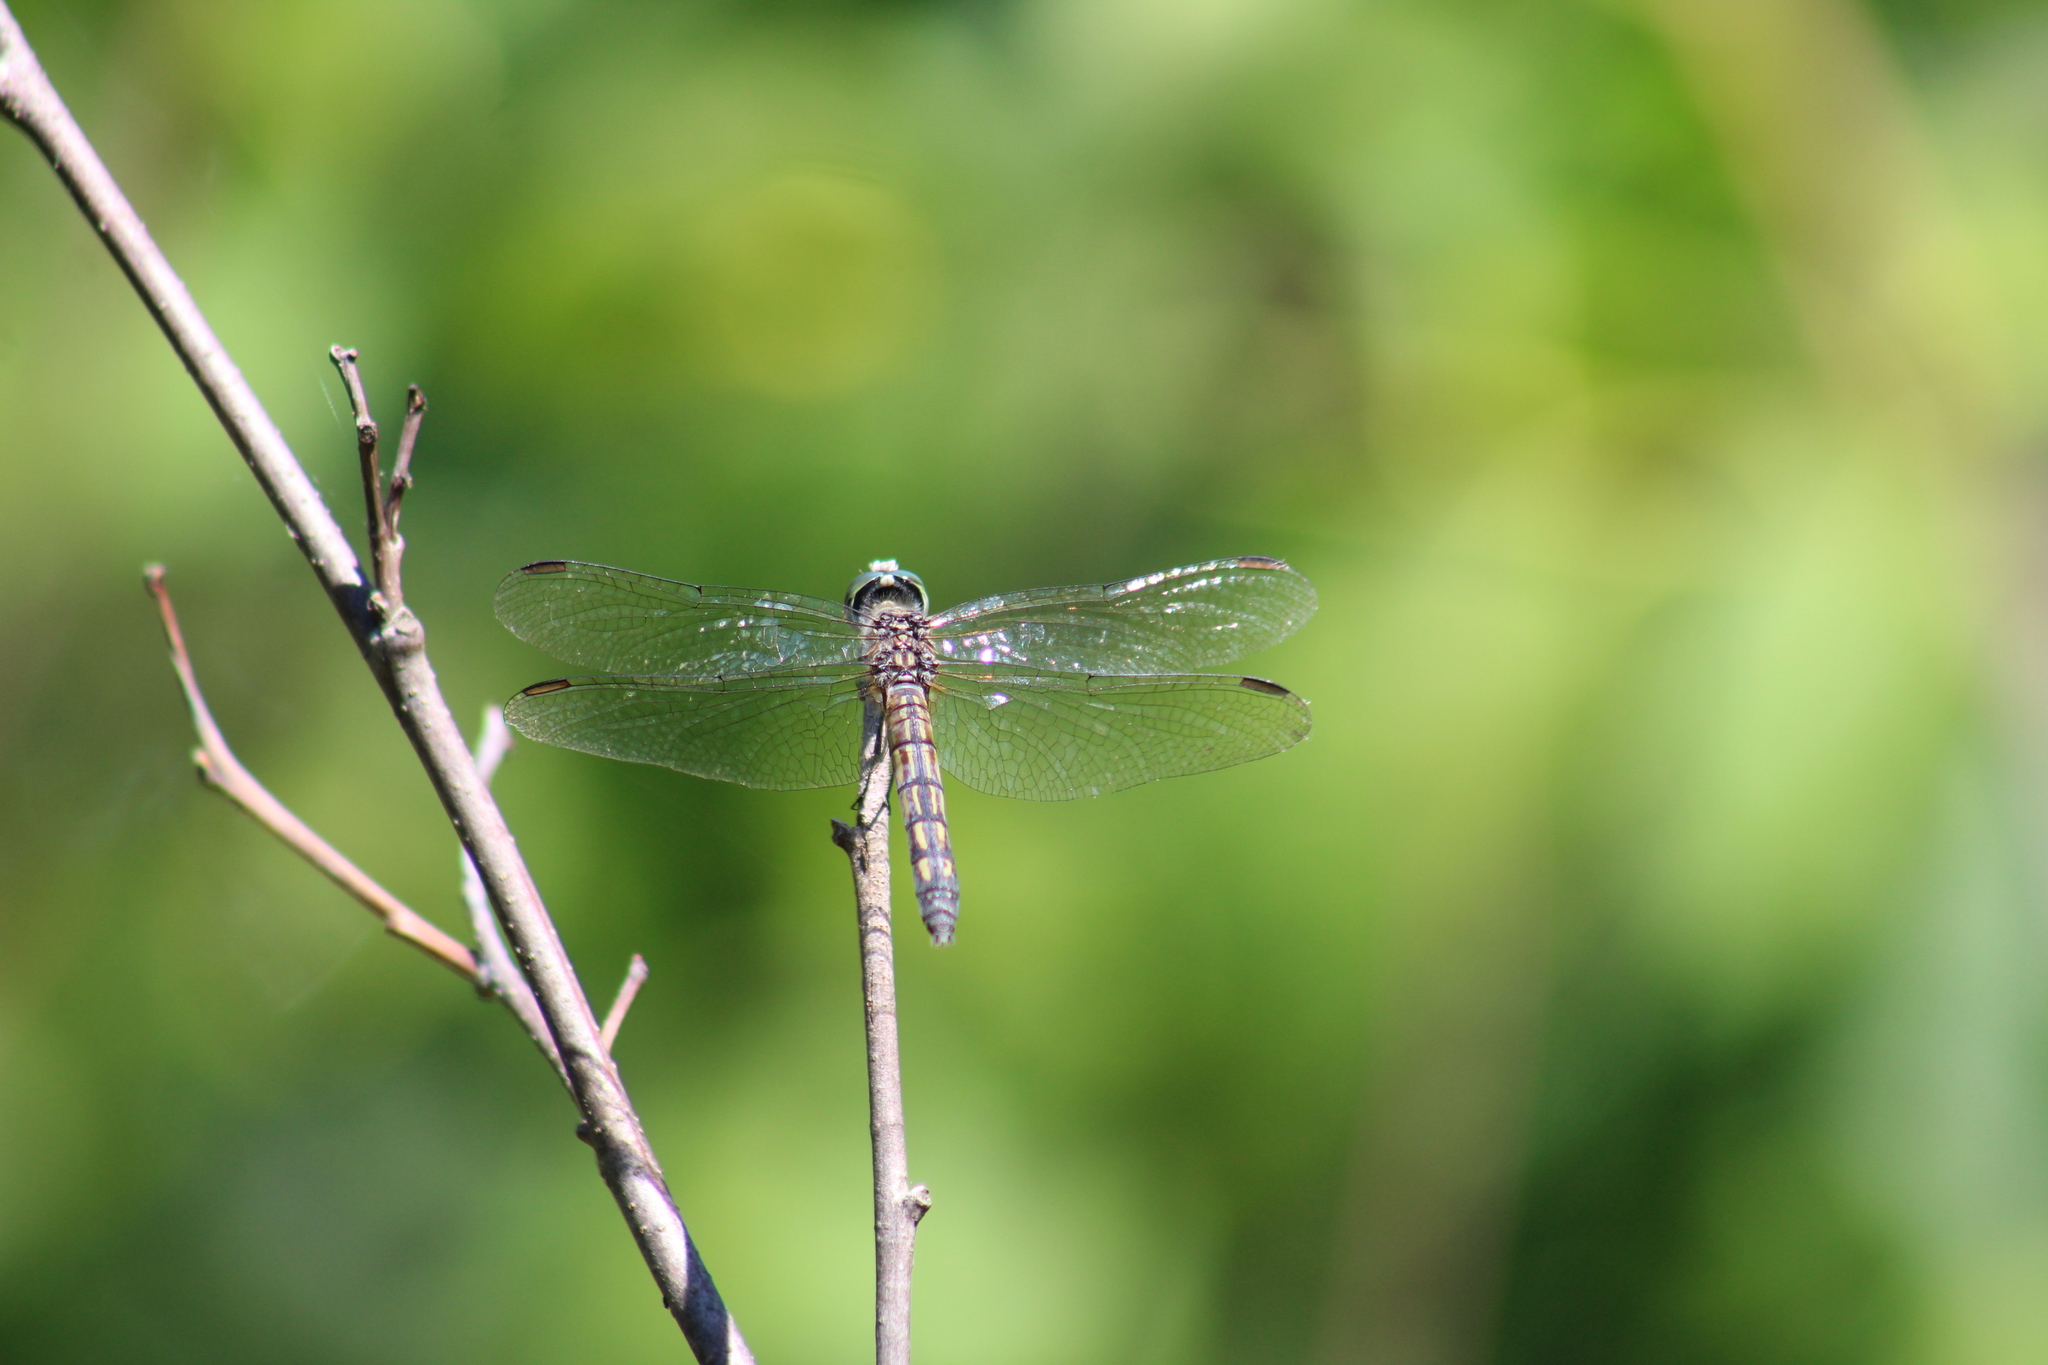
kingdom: Animalia
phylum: Arthropoda
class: Insecta
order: Odonata
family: Libellulidae
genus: Pachydiplax
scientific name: Pachydiplax longipennis
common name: Blue dasher
